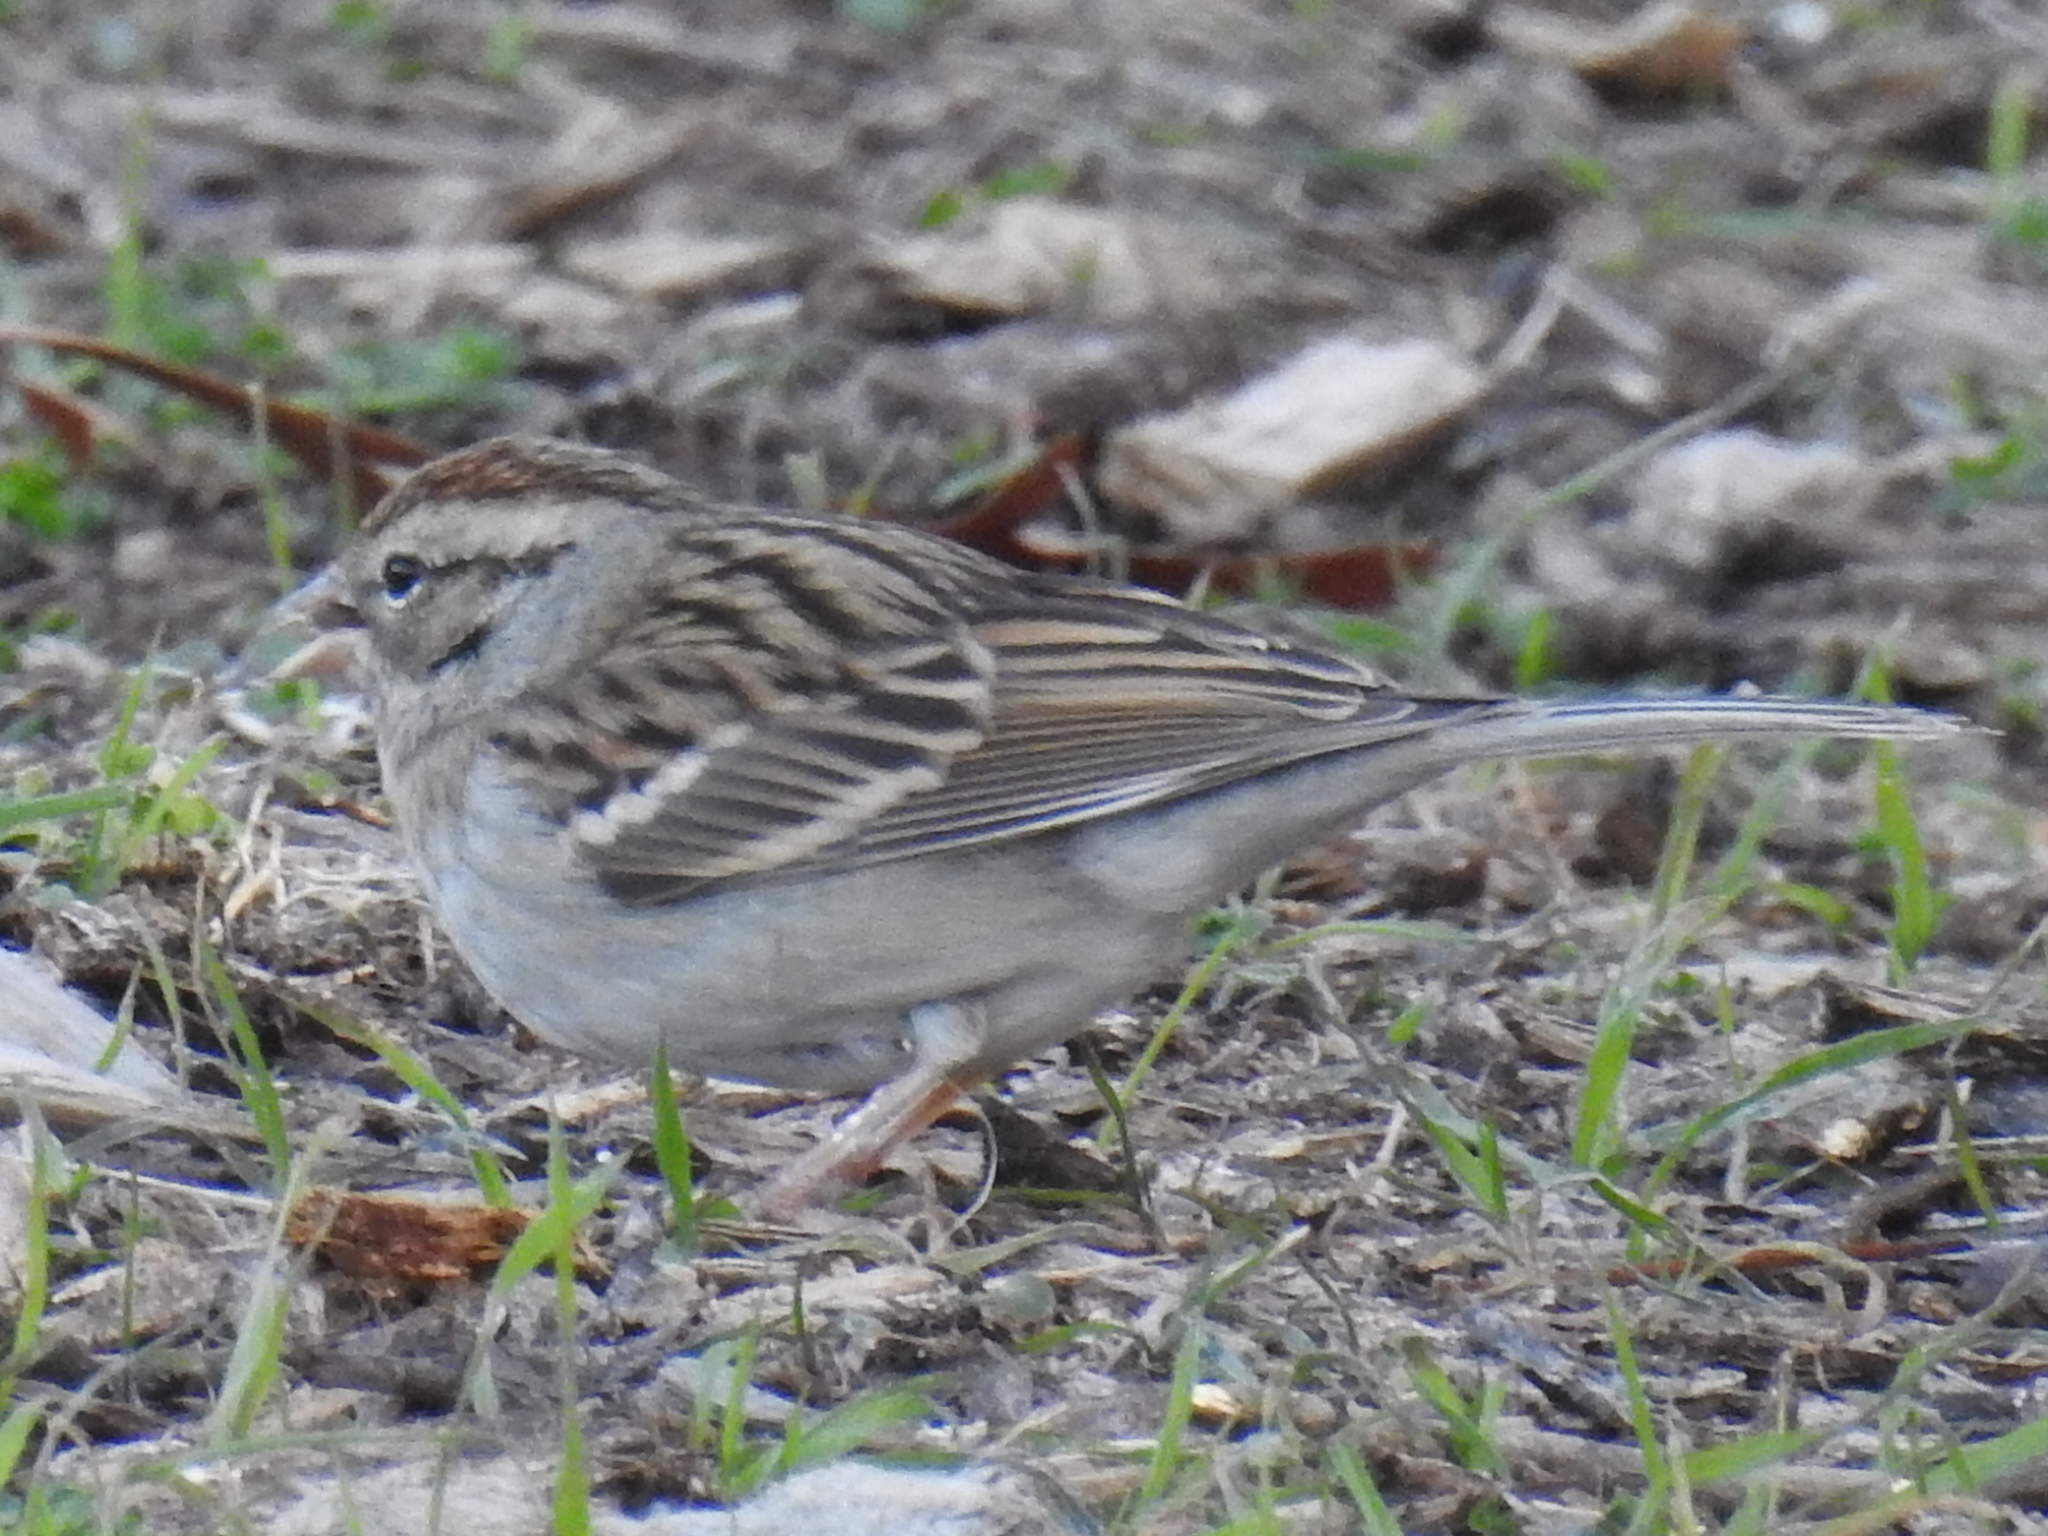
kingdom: Animalia
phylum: Chordata
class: Aves
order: Passeriformes
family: Passerellidae
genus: Spizella
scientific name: Spizella passerina
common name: Chipping sparrow
